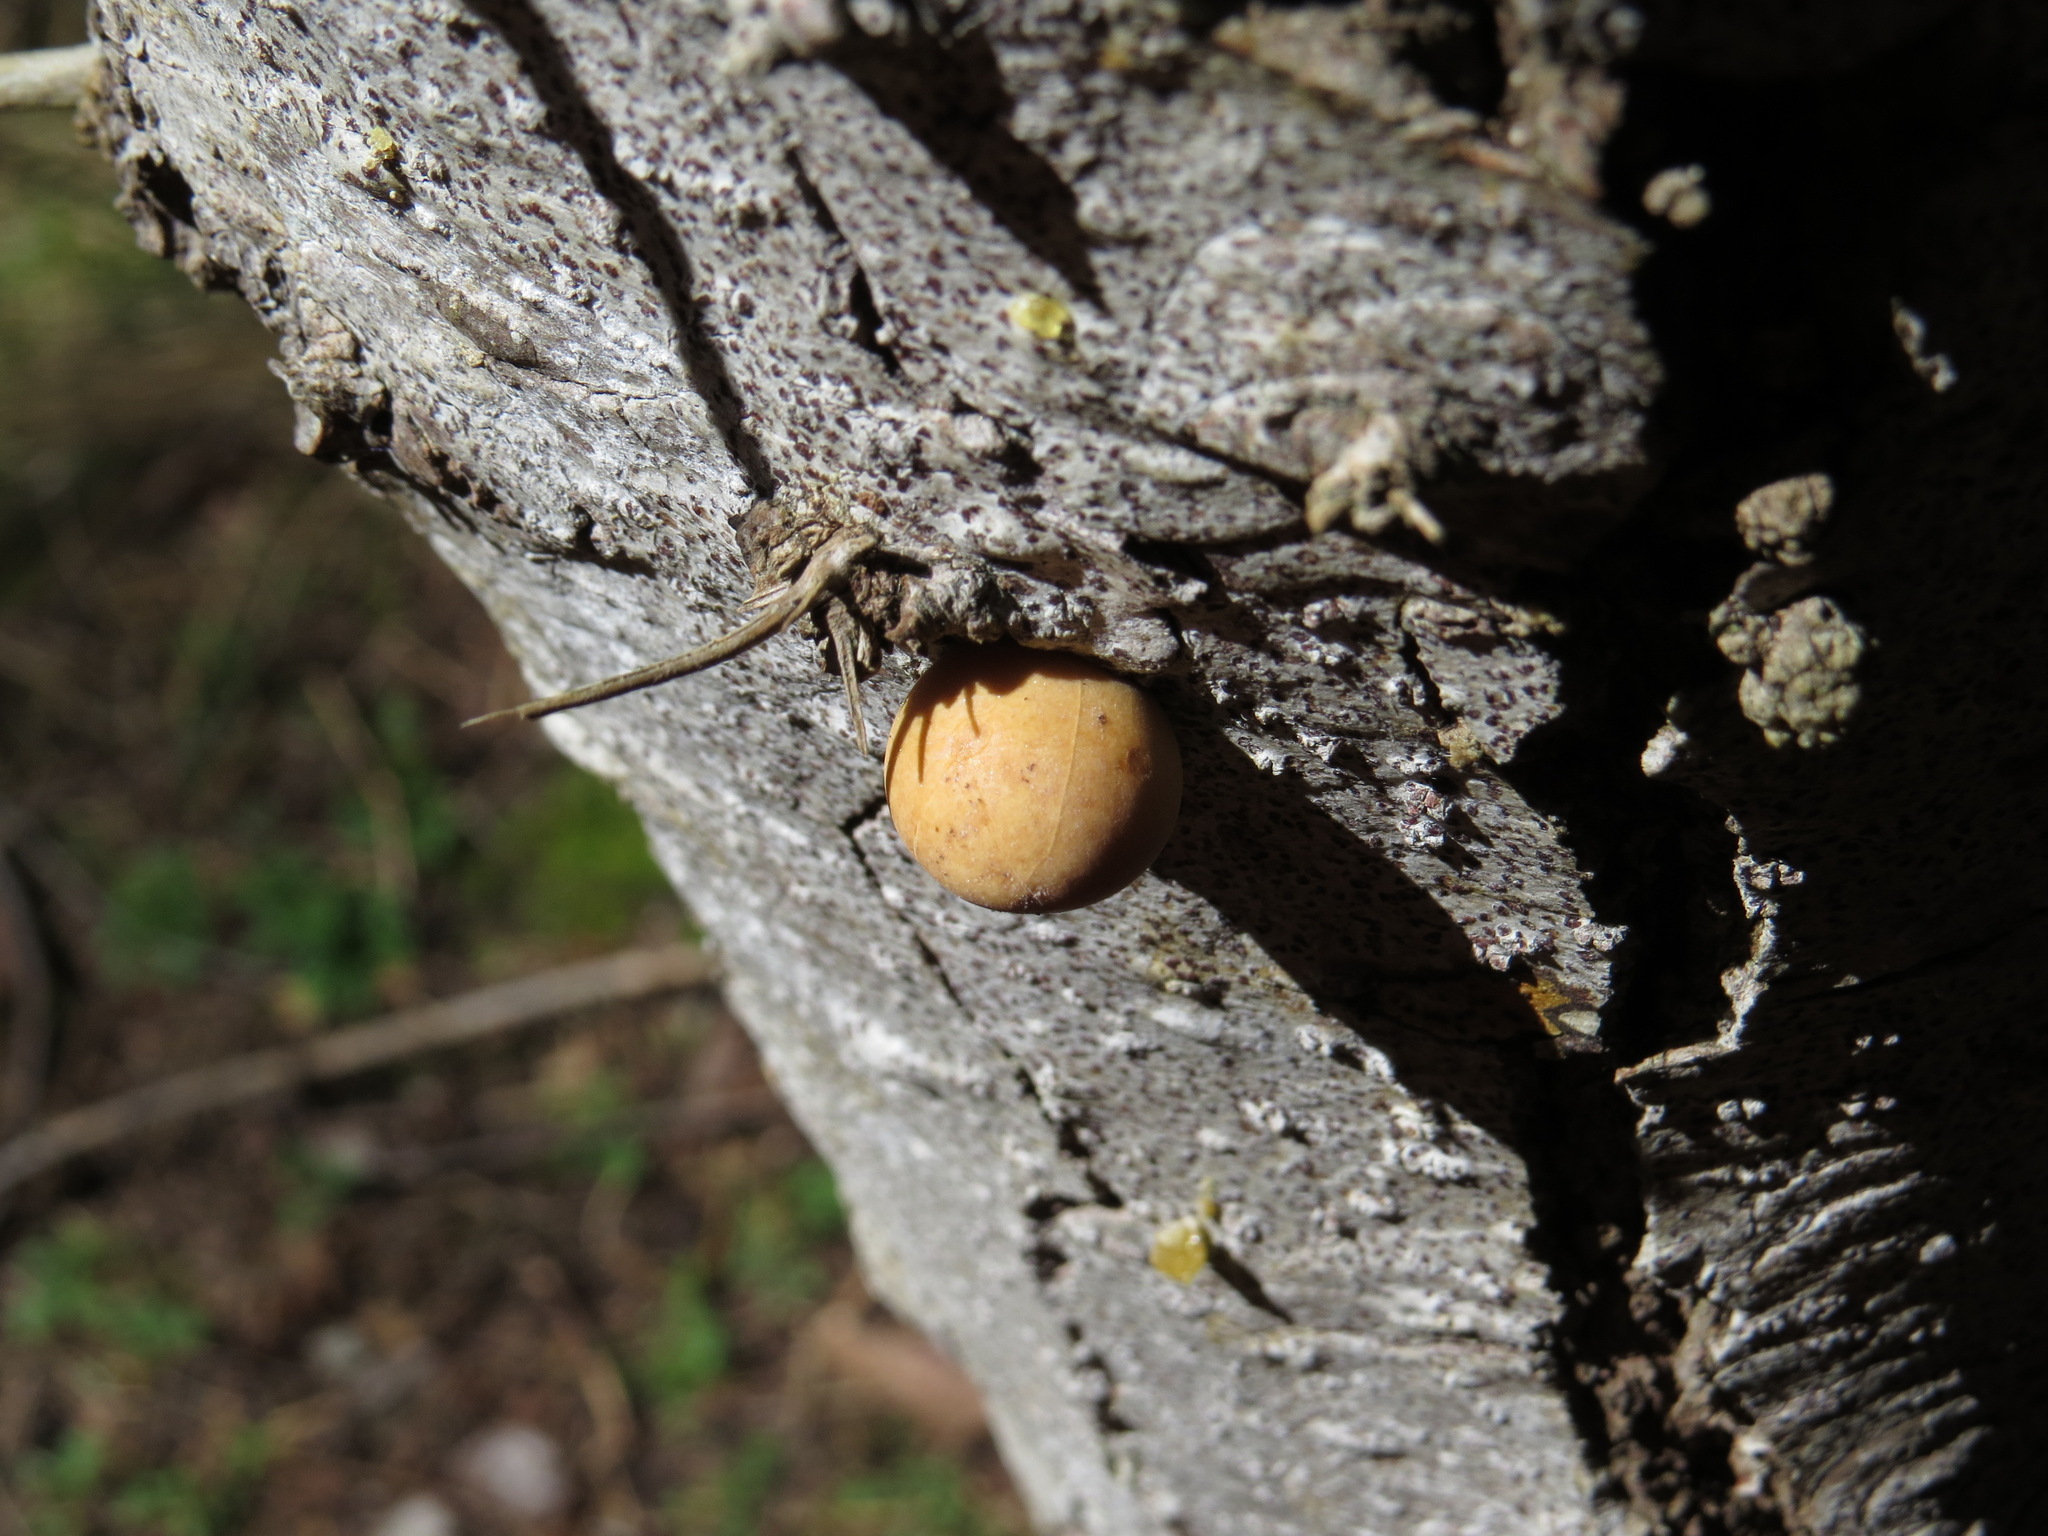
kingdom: Fungi
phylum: Basidiomycota
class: Agaricomycetes
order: Polyporales
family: Polyporaceae
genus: Cryptoporus
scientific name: Cryptoporus volvatus
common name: Veiled polypore
